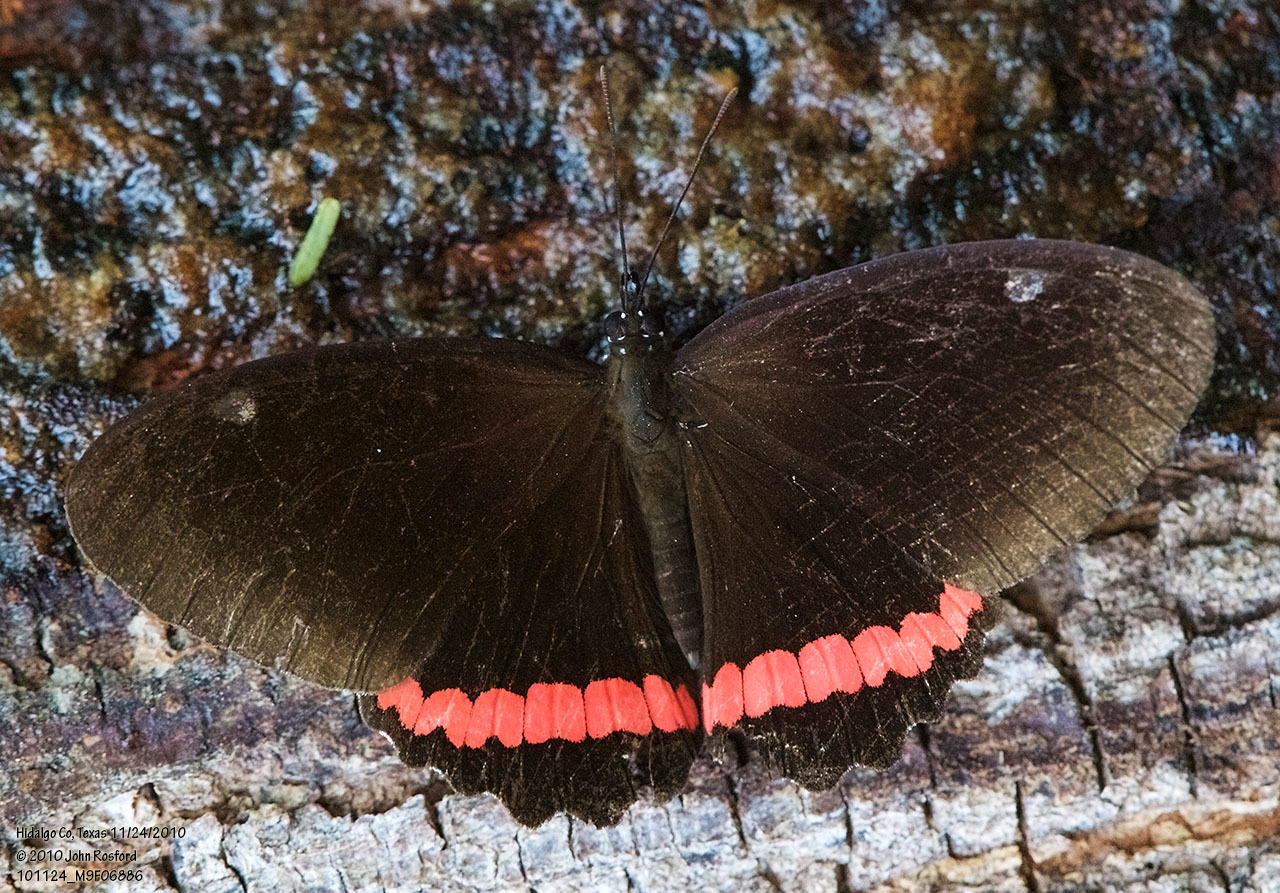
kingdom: Animalia
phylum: Arthropoda
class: Insecta
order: Lepidoptera
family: Nymphalidae
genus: Biblis
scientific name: Biblis aganisa
